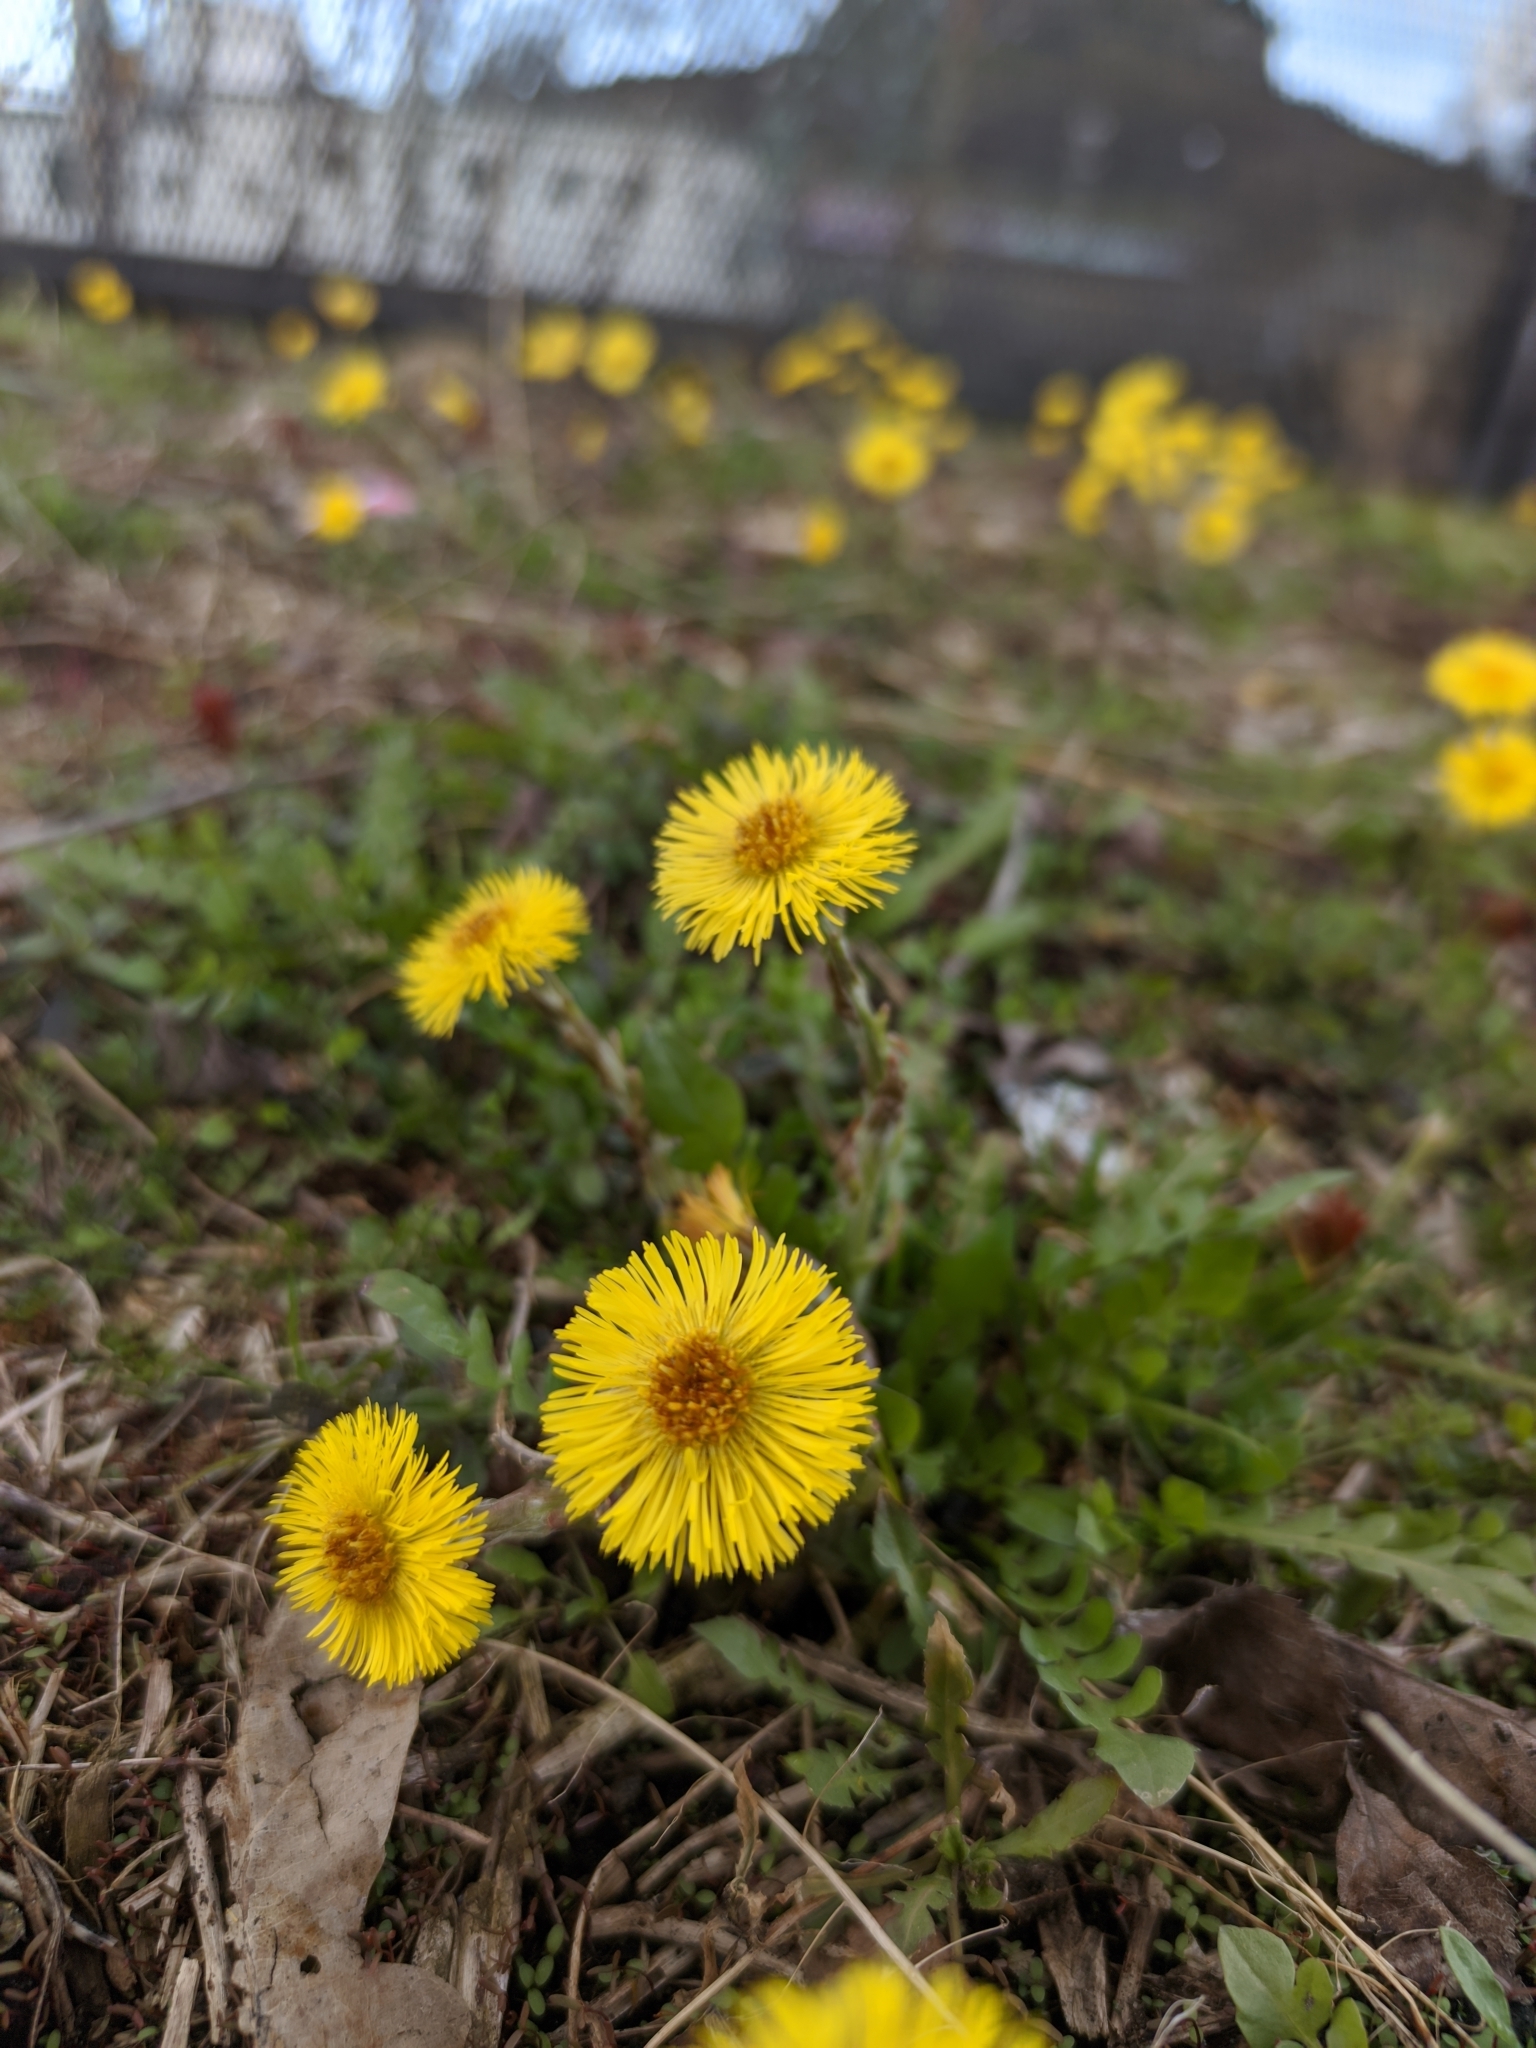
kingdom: Plantae
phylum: Tracheophyta
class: Magnoliopsida
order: Asterales
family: Asteraceae
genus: Tussilago
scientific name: Tussilago farfara
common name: Coltsfoot
